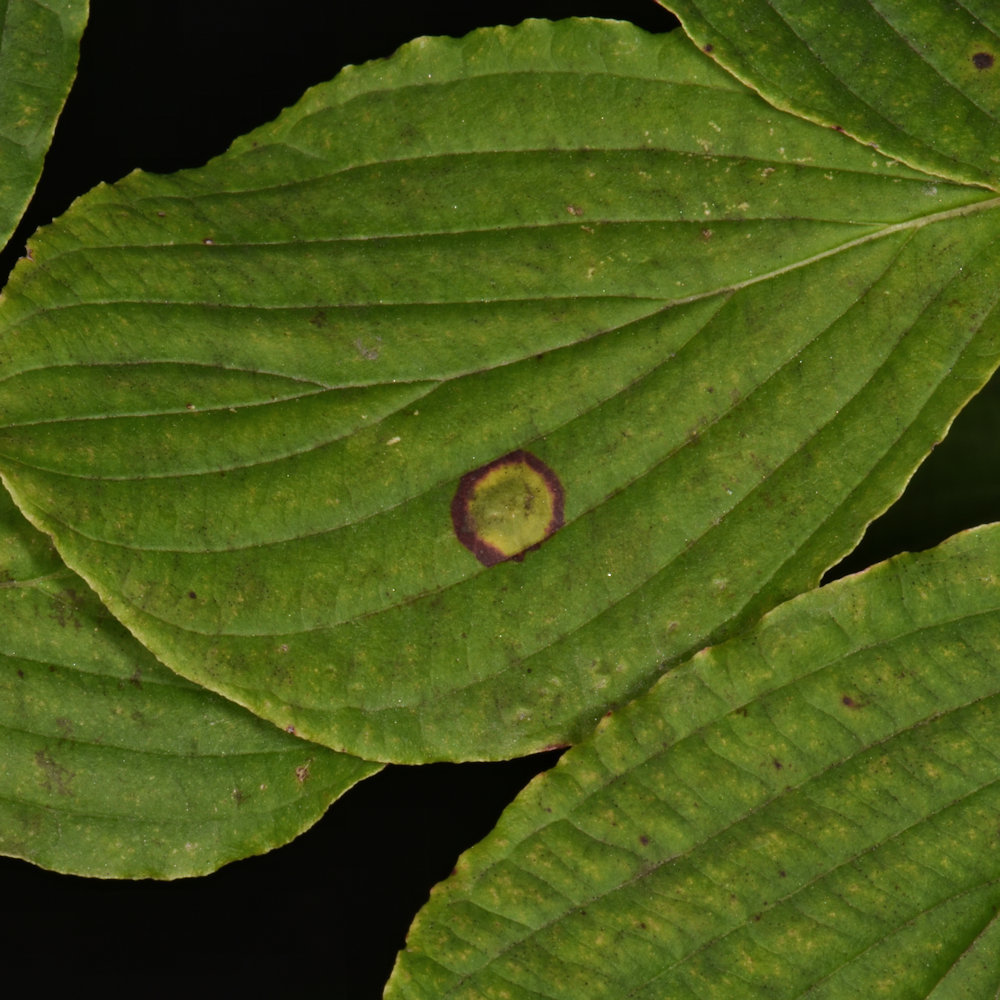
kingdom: Animalia
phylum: Arthropoda
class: Insecta
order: Diptera
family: Cecidomyiidae
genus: Parallelodiplosis
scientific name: Parallelodiplosis subtruncata
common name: Dogwood eyespot gall midge
